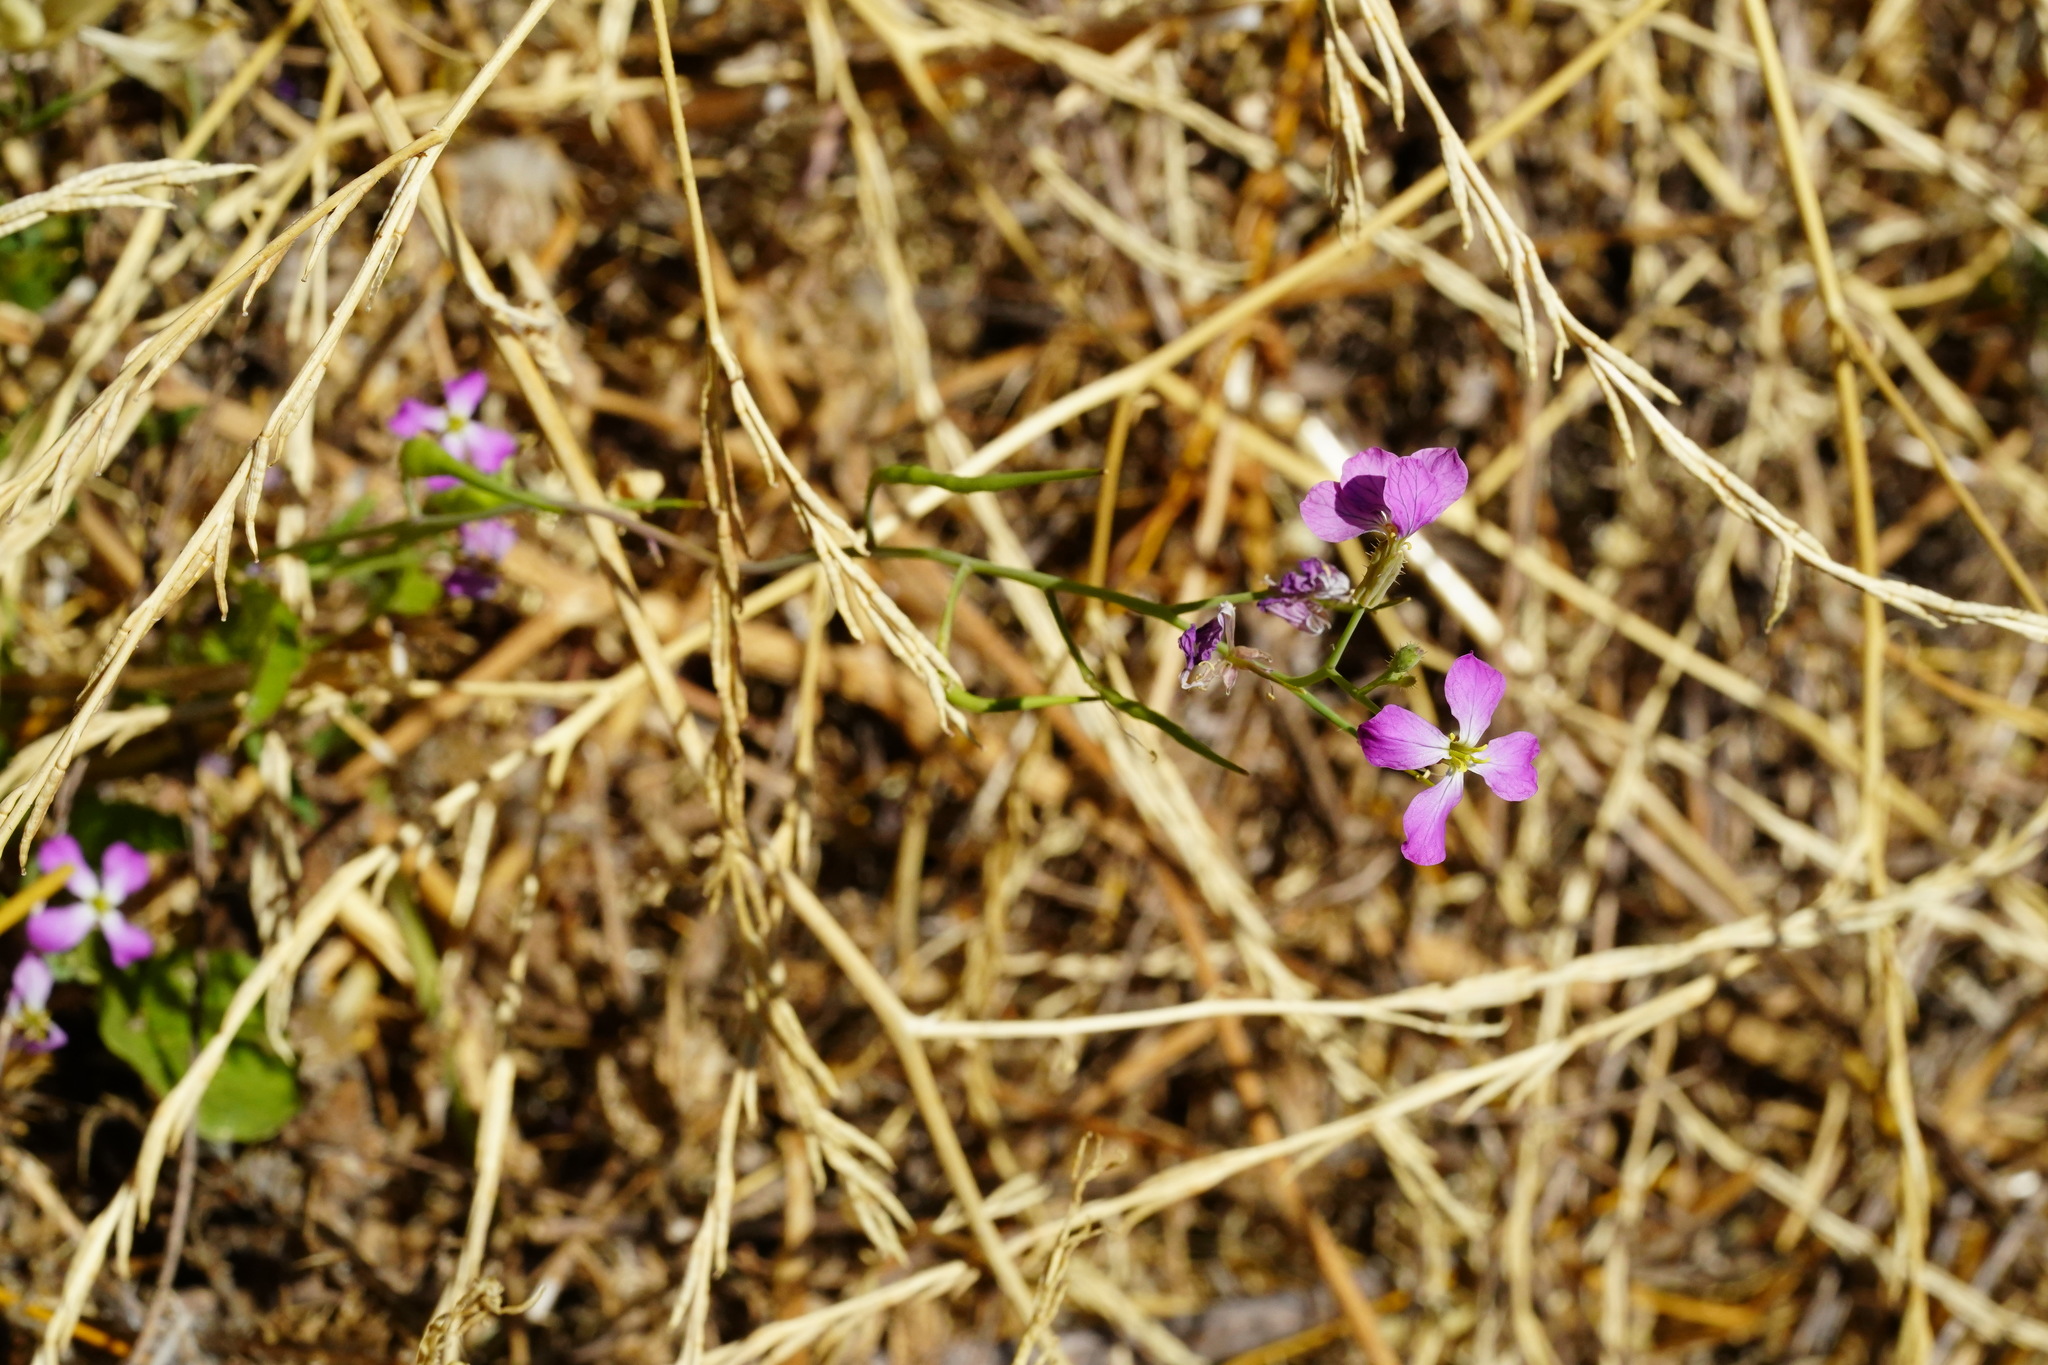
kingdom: Plantae
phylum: Tracheophyta
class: Magnoliopsida
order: Brassicales
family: Brassicaceae
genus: Raphanus
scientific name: Raphanus sativus
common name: Cultivated radish
